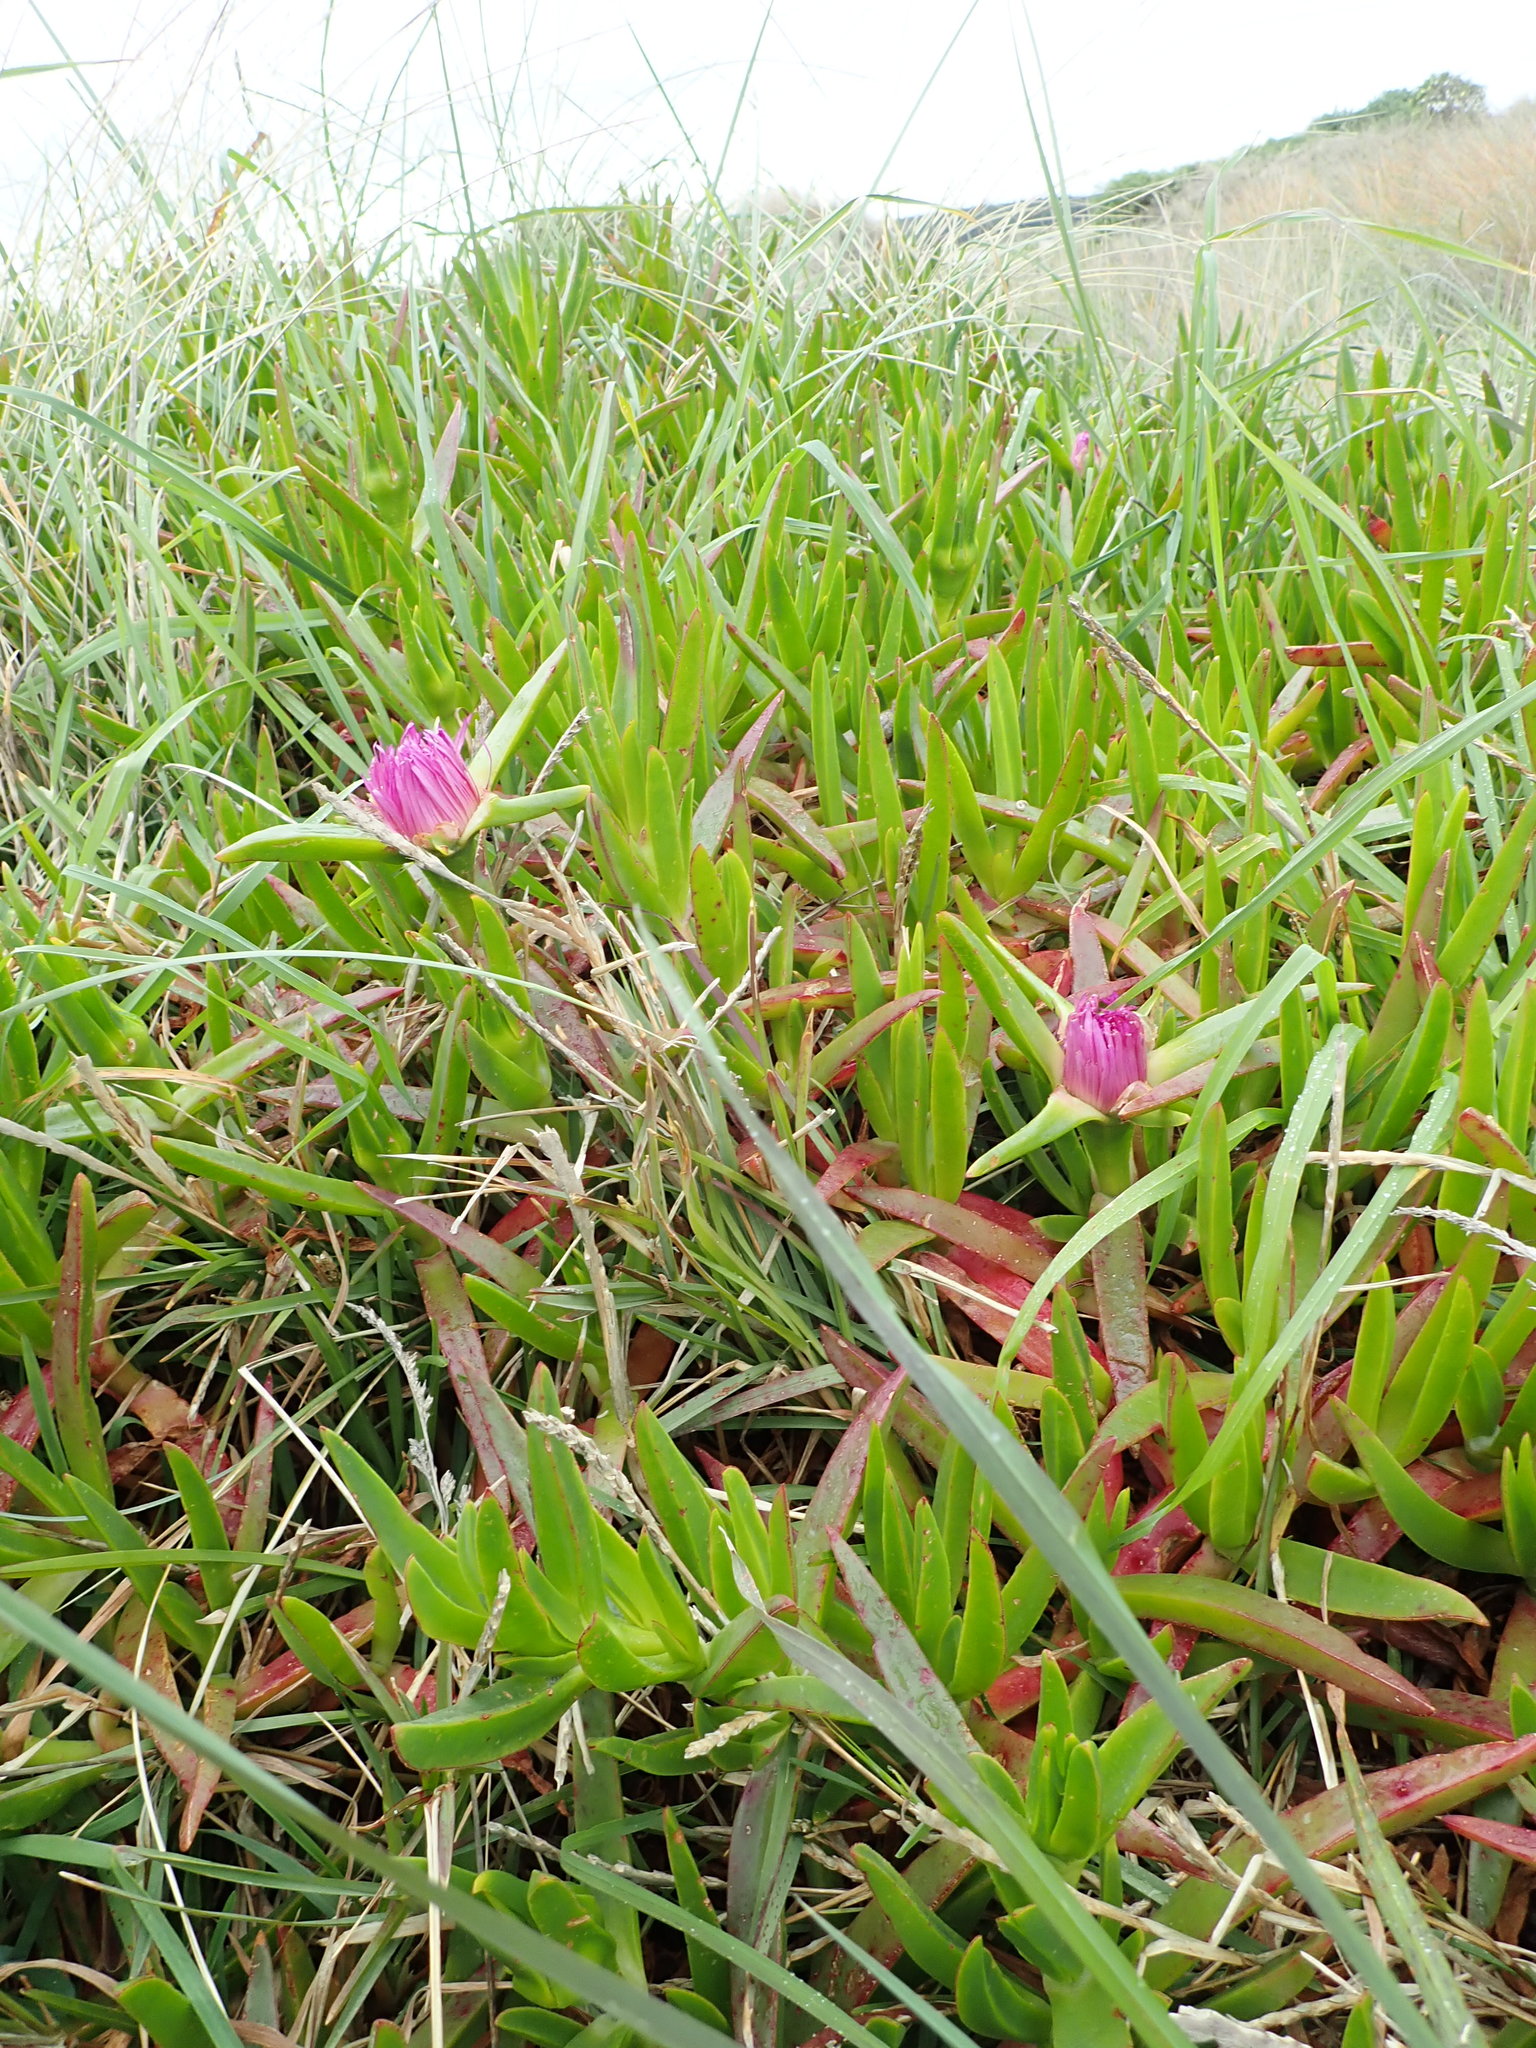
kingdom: Plantae
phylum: Tracheophyta
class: Magnoliopsida
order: Caryophyllales
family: Aizoaceae
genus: Carpobrotus
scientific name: Carpobrotus chilensis
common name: Sea fig
